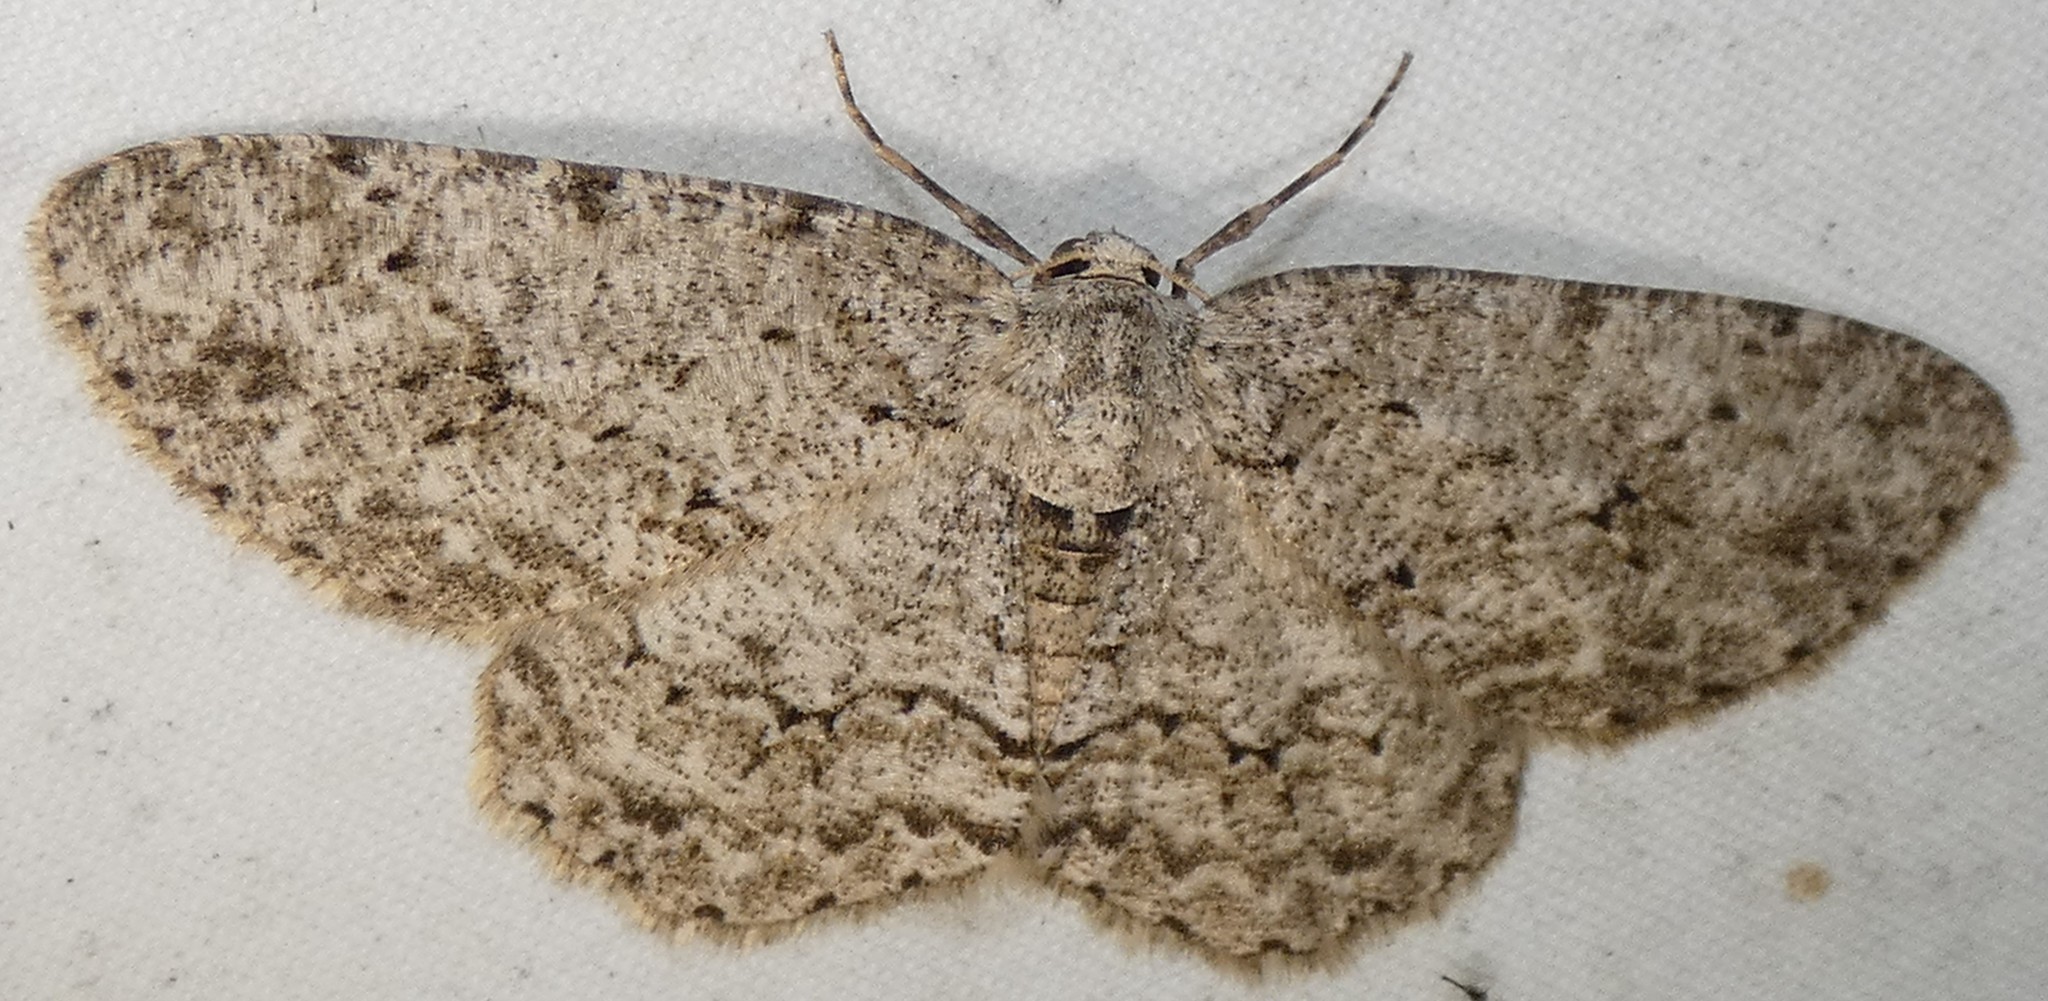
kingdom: Animalia
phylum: Arthropoda
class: Insecta
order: Lepidoptera
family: Geometridae
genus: Ectropis
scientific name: Ectropis crepuscularia
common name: Engrailed
